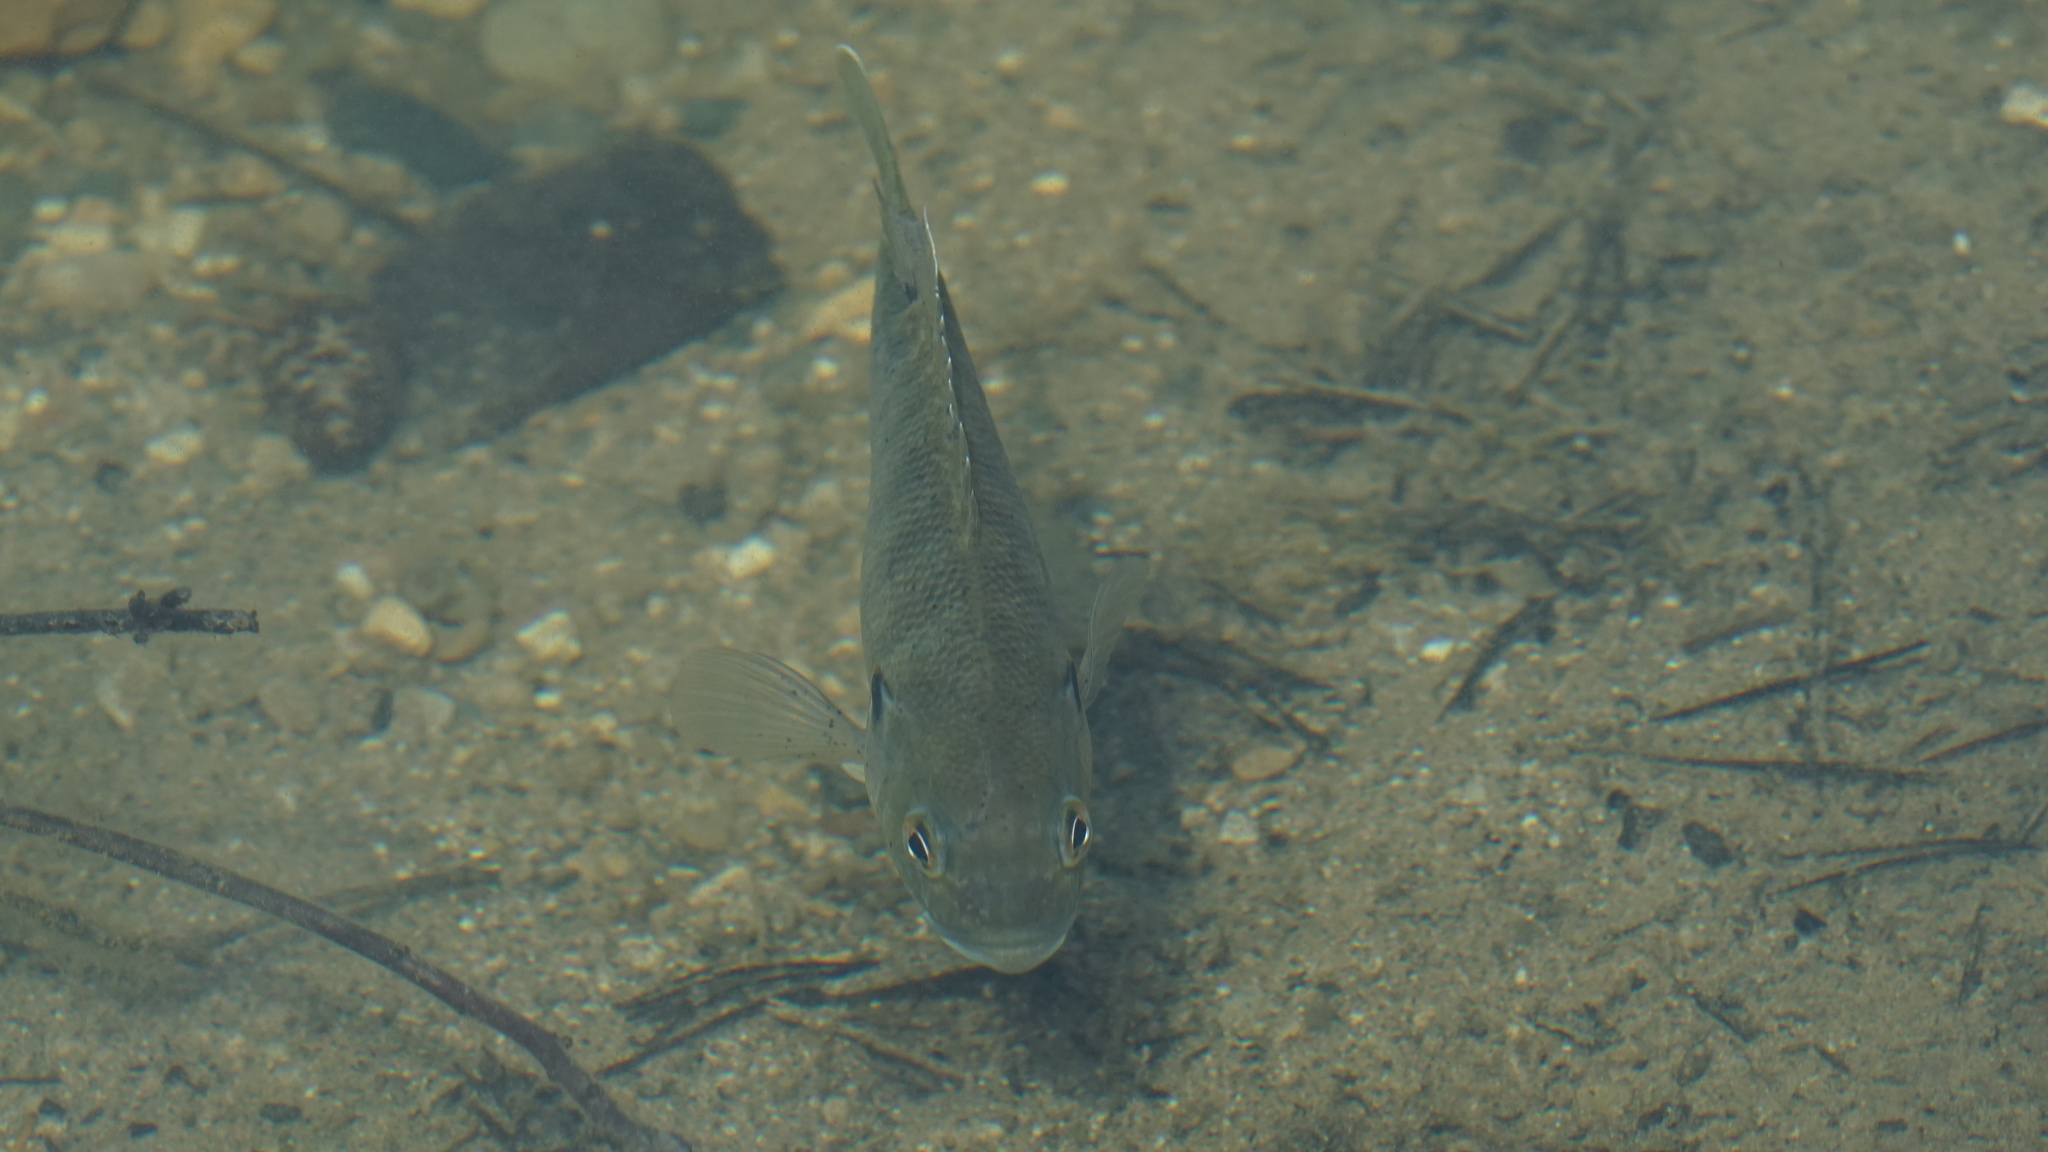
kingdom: Animalia
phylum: Chordata
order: Perciformes
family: Centrarchidae
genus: Lepomis
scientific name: Lepomis cyanellus
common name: Green sunfish
